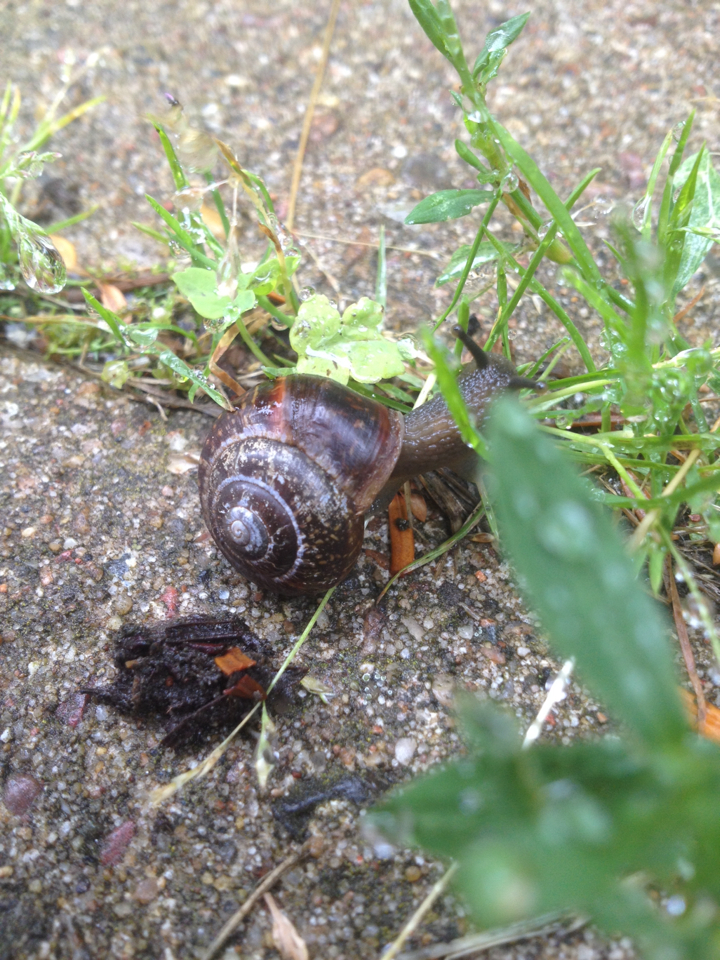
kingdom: Animalia
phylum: Mollusca
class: Gastropoda
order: Stylommatophora
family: Helicidae
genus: Arianta
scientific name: Arianta arbustorum
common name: Copse snail
